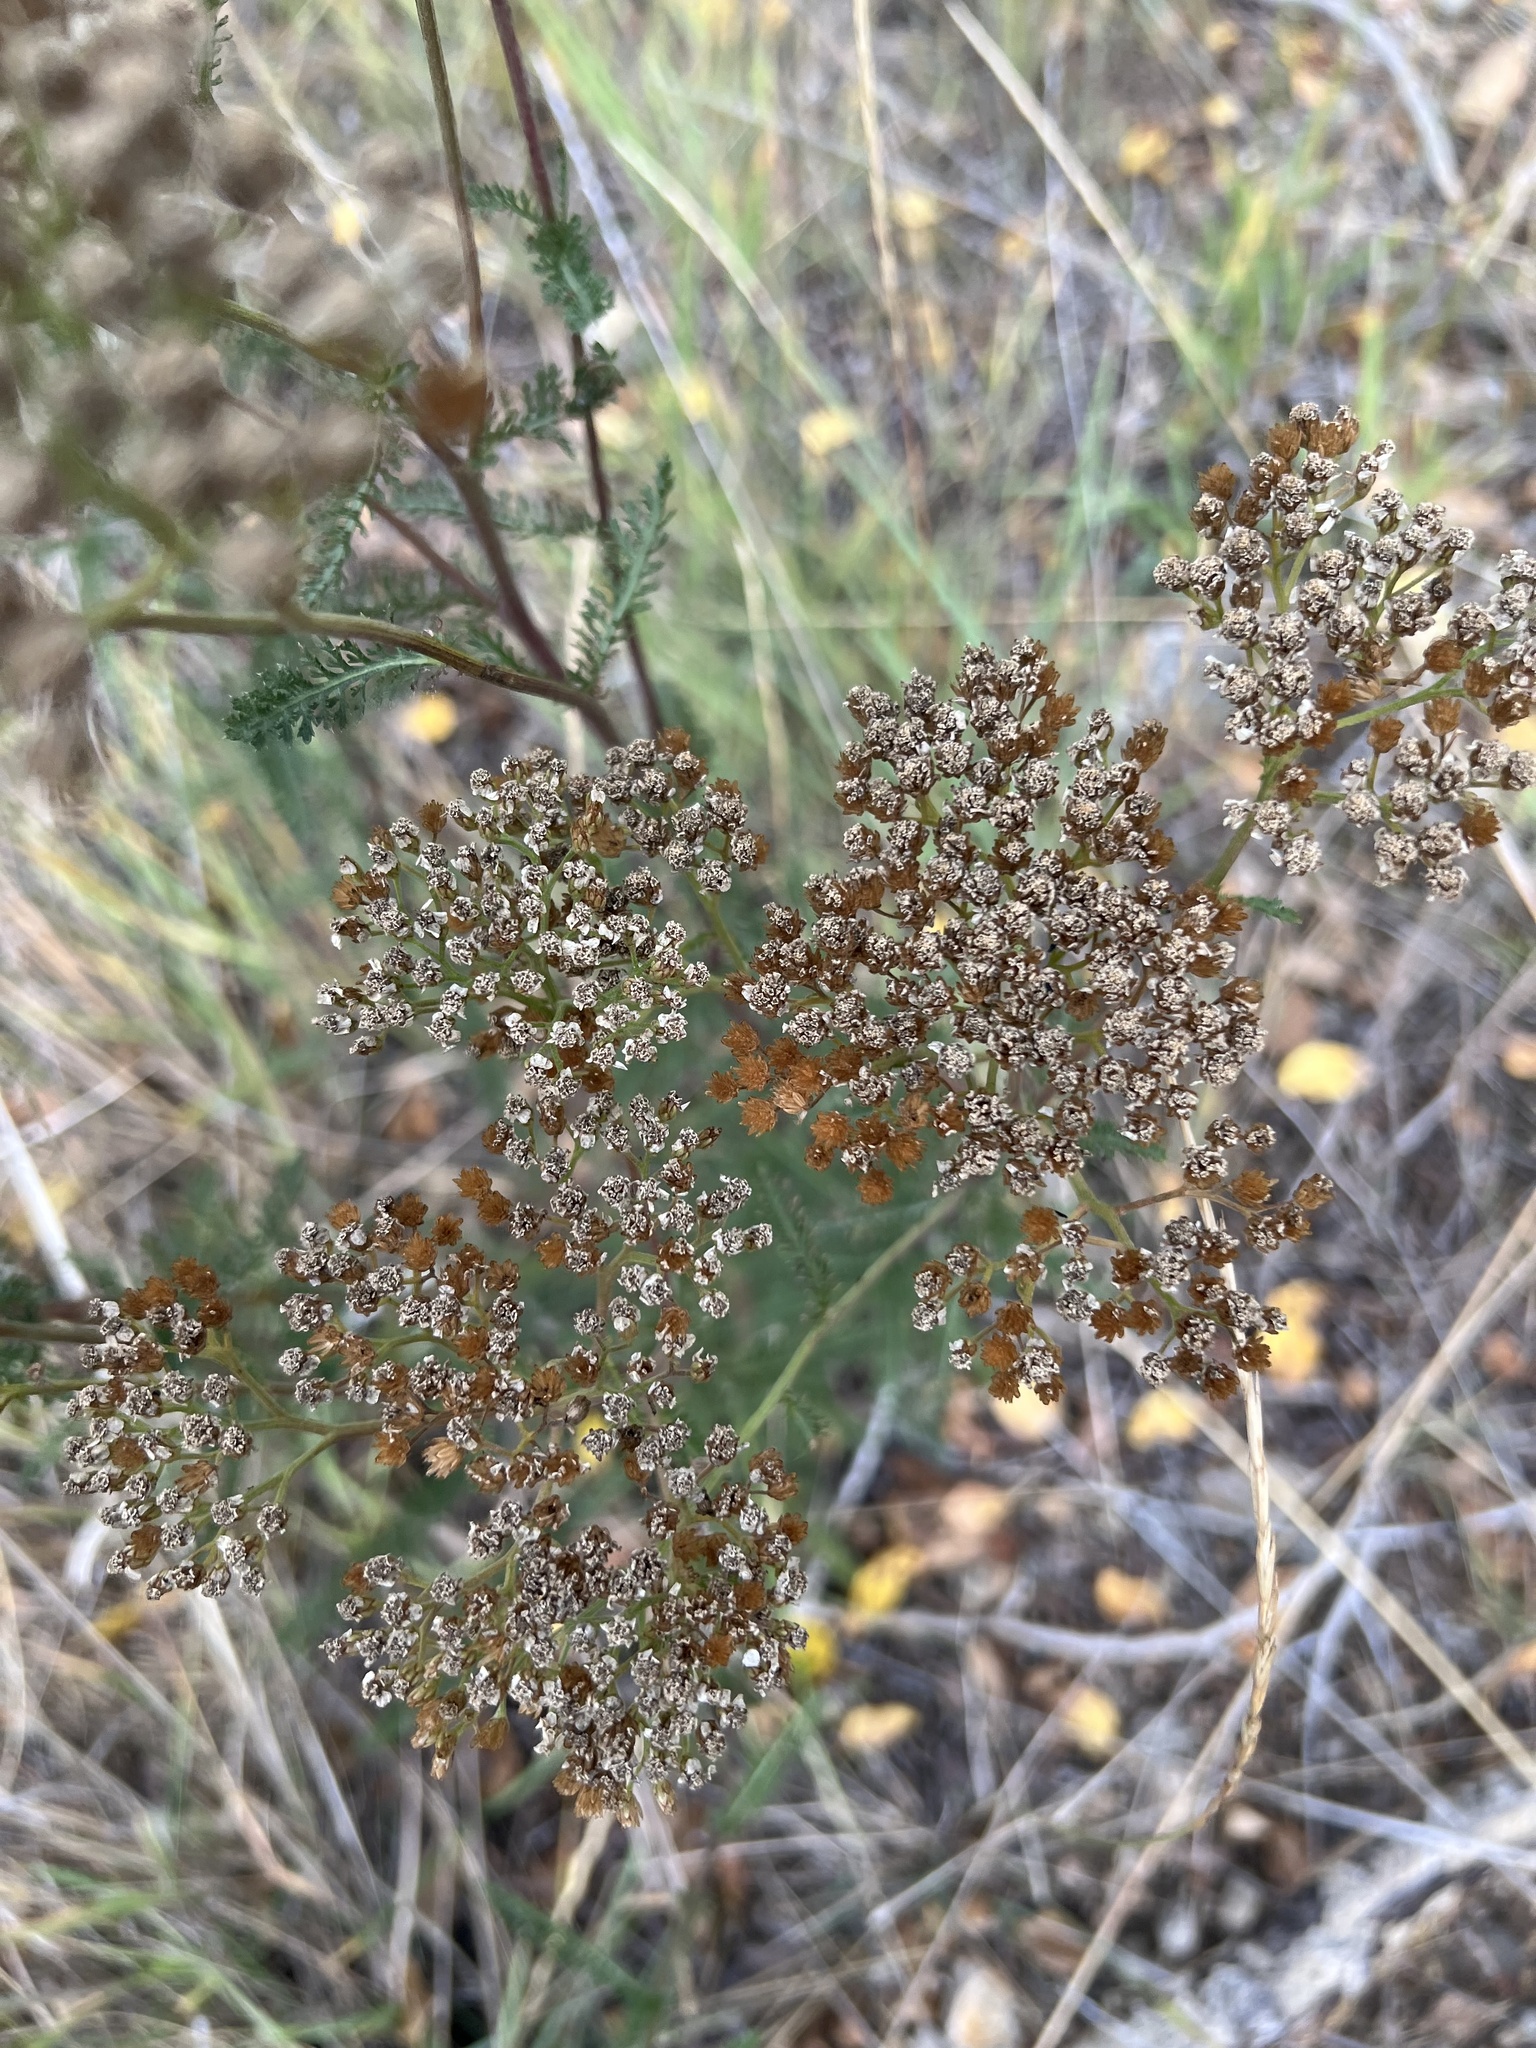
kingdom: Plantae
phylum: Tracheophyta
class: Magnoliopsida
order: Asterales
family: Asteraceae
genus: Achillea
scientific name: Achillea millefolium
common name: Yarrow
